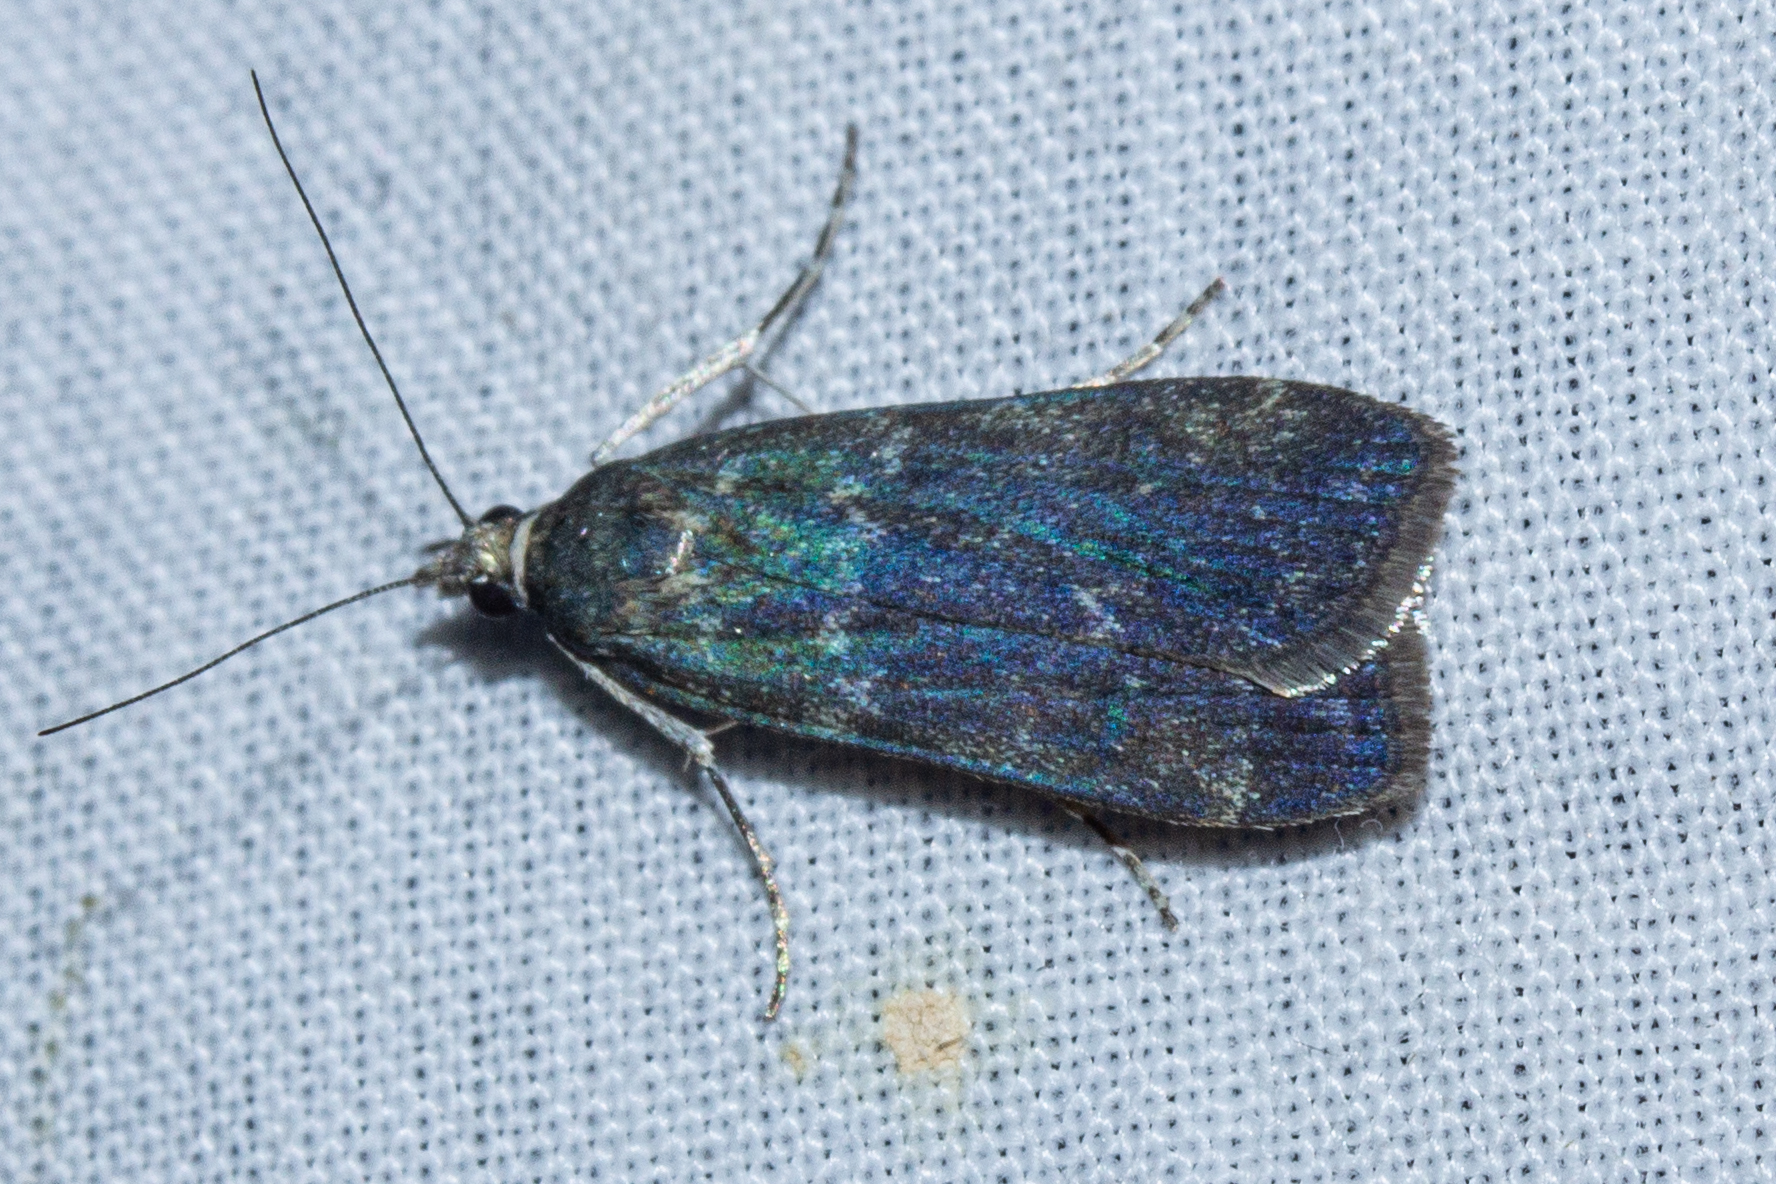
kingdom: Animalia
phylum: Arthropoda
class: Insecta
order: Lepidoptera
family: Crambidae
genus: Eudonia
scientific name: Eudonia cataxesta
